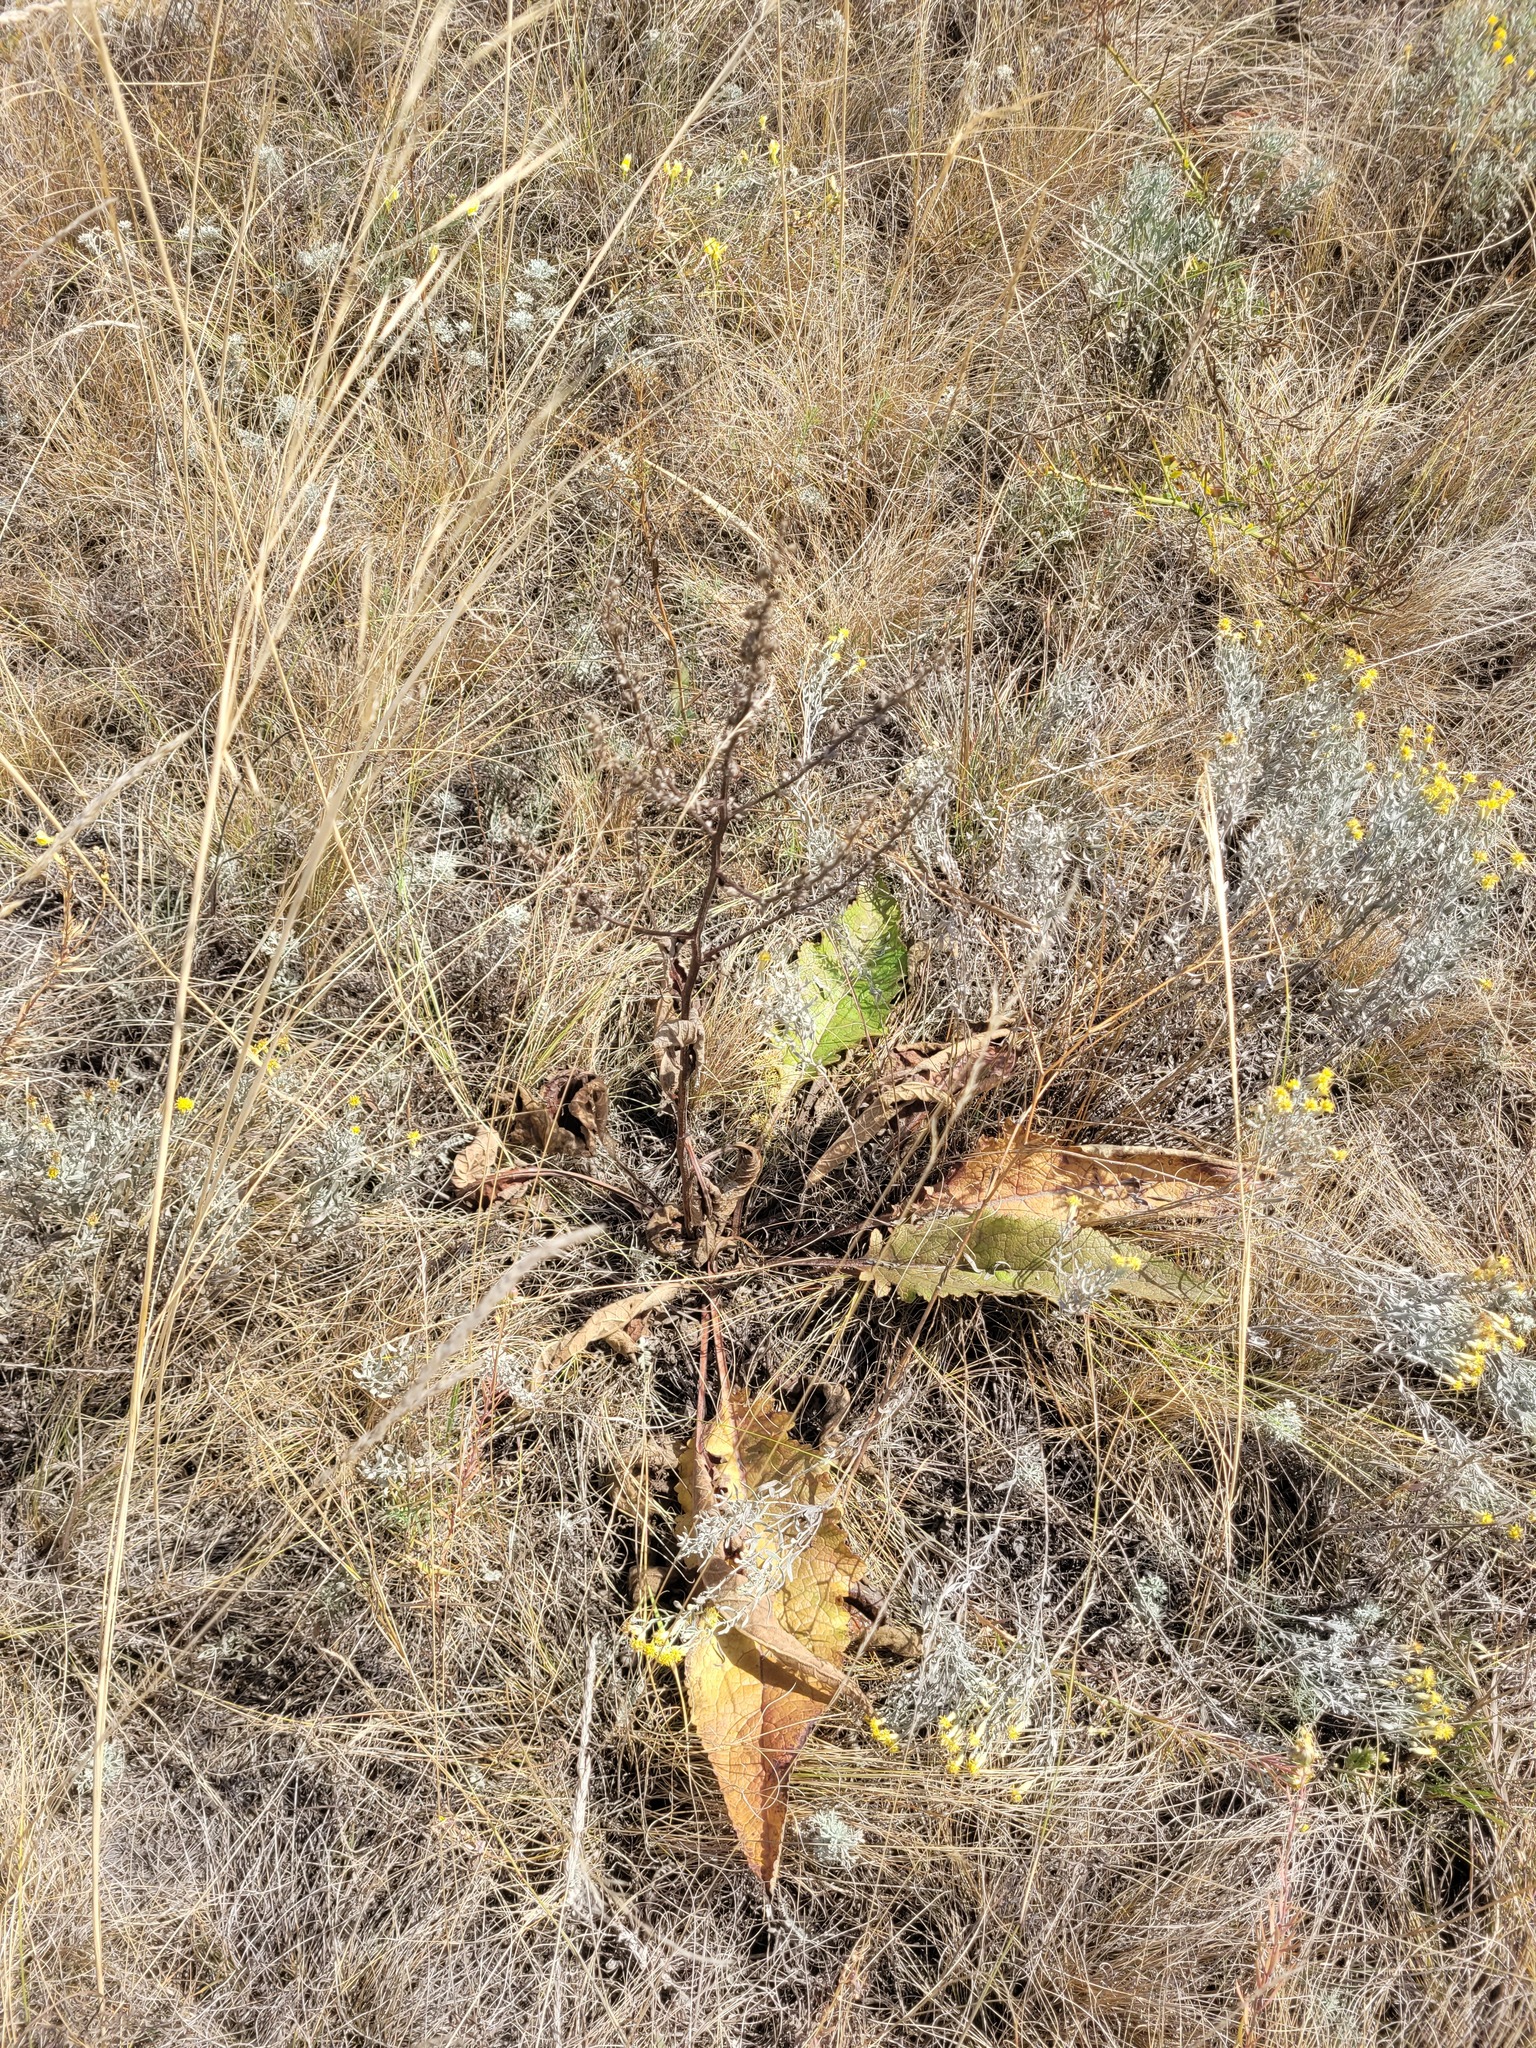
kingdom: Plantae
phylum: Tracheophyta
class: Magnoliopsida
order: Lamiales
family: Scrophulariaceae
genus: Verbascum
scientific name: Verbascum chaixii
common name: Nettle-leaved mullein
